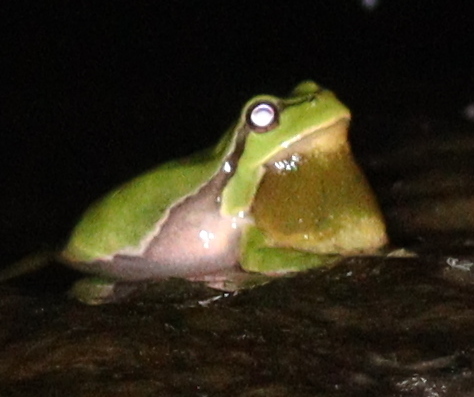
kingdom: Animalia
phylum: Chordata
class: Amphibia
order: Anura
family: Hylidae
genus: Hyla
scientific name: Hyla arborea
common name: Common tree frog
